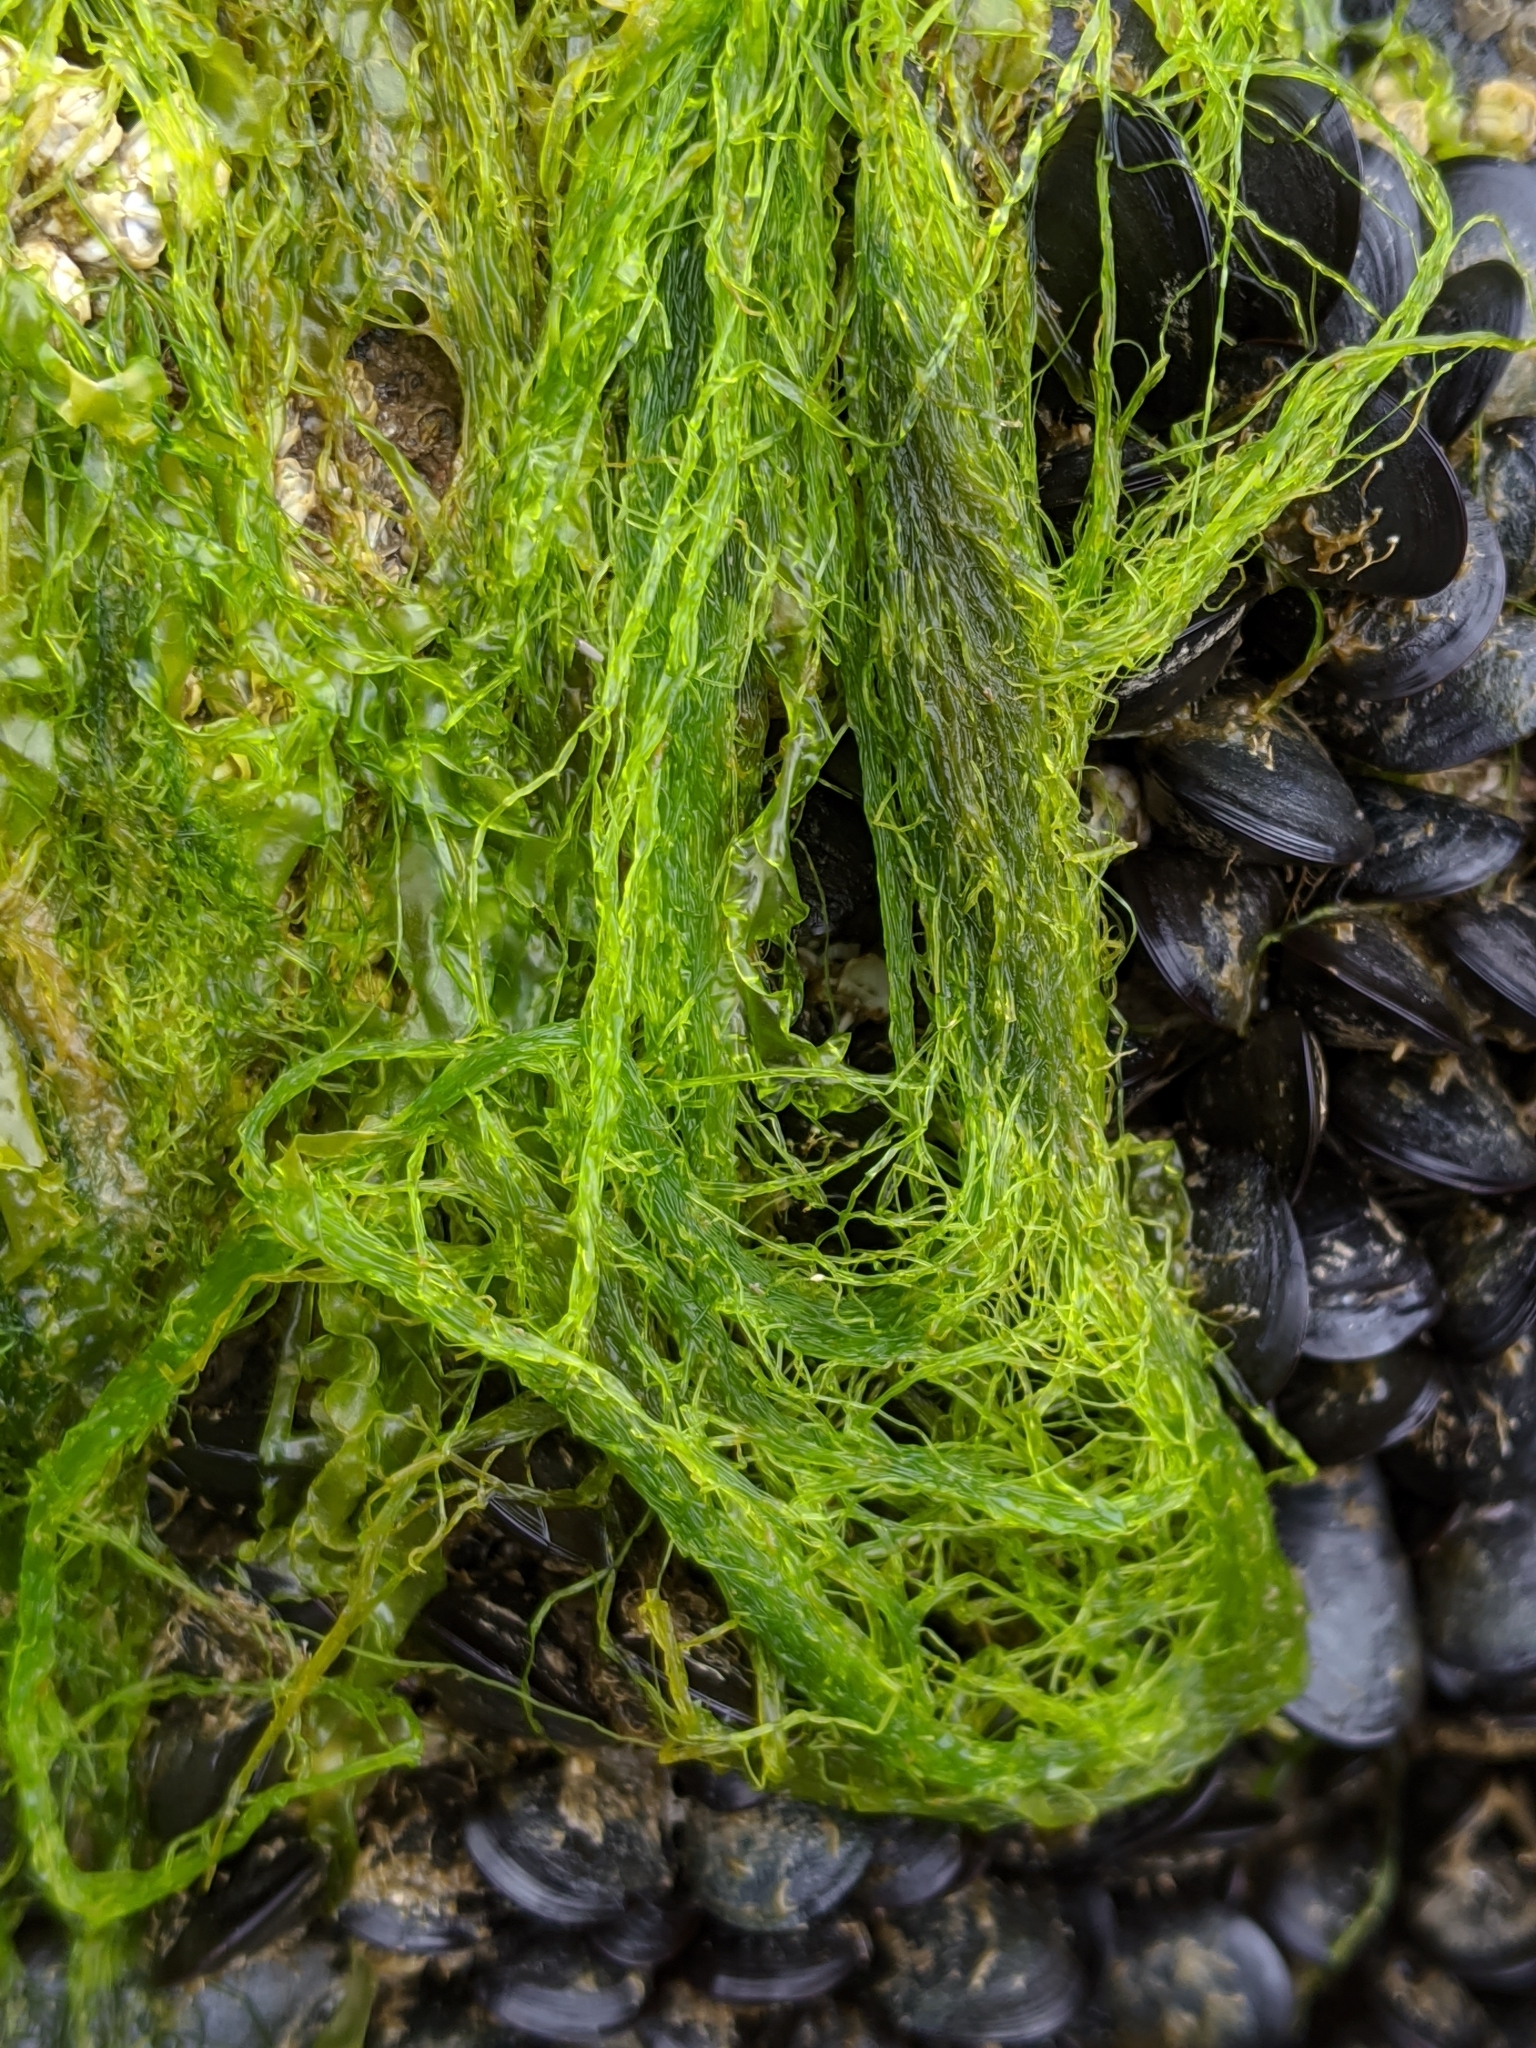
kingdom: Plantae
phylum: Chlorophyta
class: Ulvophyceae
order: Ulvales
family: Ulvaceae
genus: Ulva
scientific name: Ulva intestinalis
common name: Gut weed
